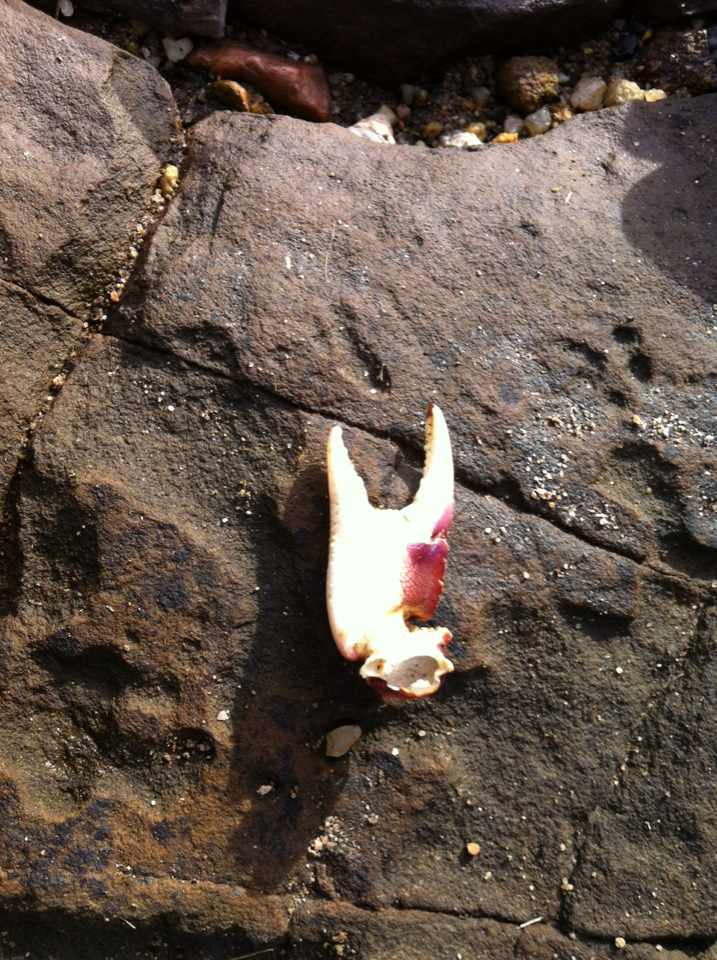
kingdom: Animalia
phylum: Arthropoda
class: Malacostraca
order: Decapoda
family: Grapsidae
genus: Leptograpsus
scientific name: Leptograpsus variegatus
